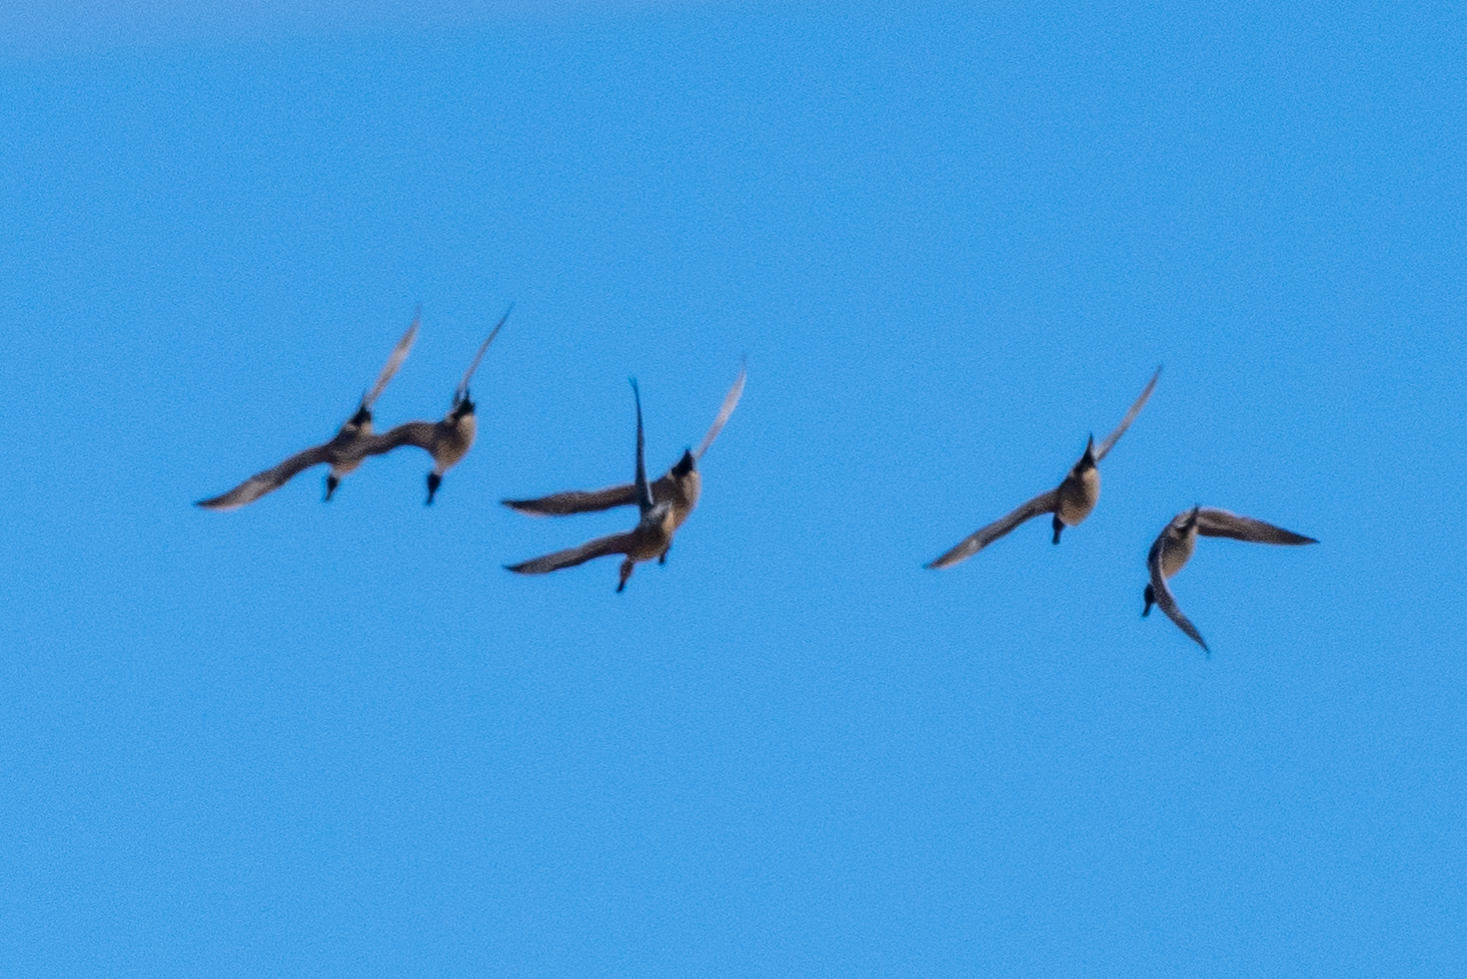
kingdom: Animalia
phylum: Chordata
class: Aves
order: Anseriformes
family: Anatidae
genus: Anas
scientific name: Anas acuta
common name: Northern pintail
